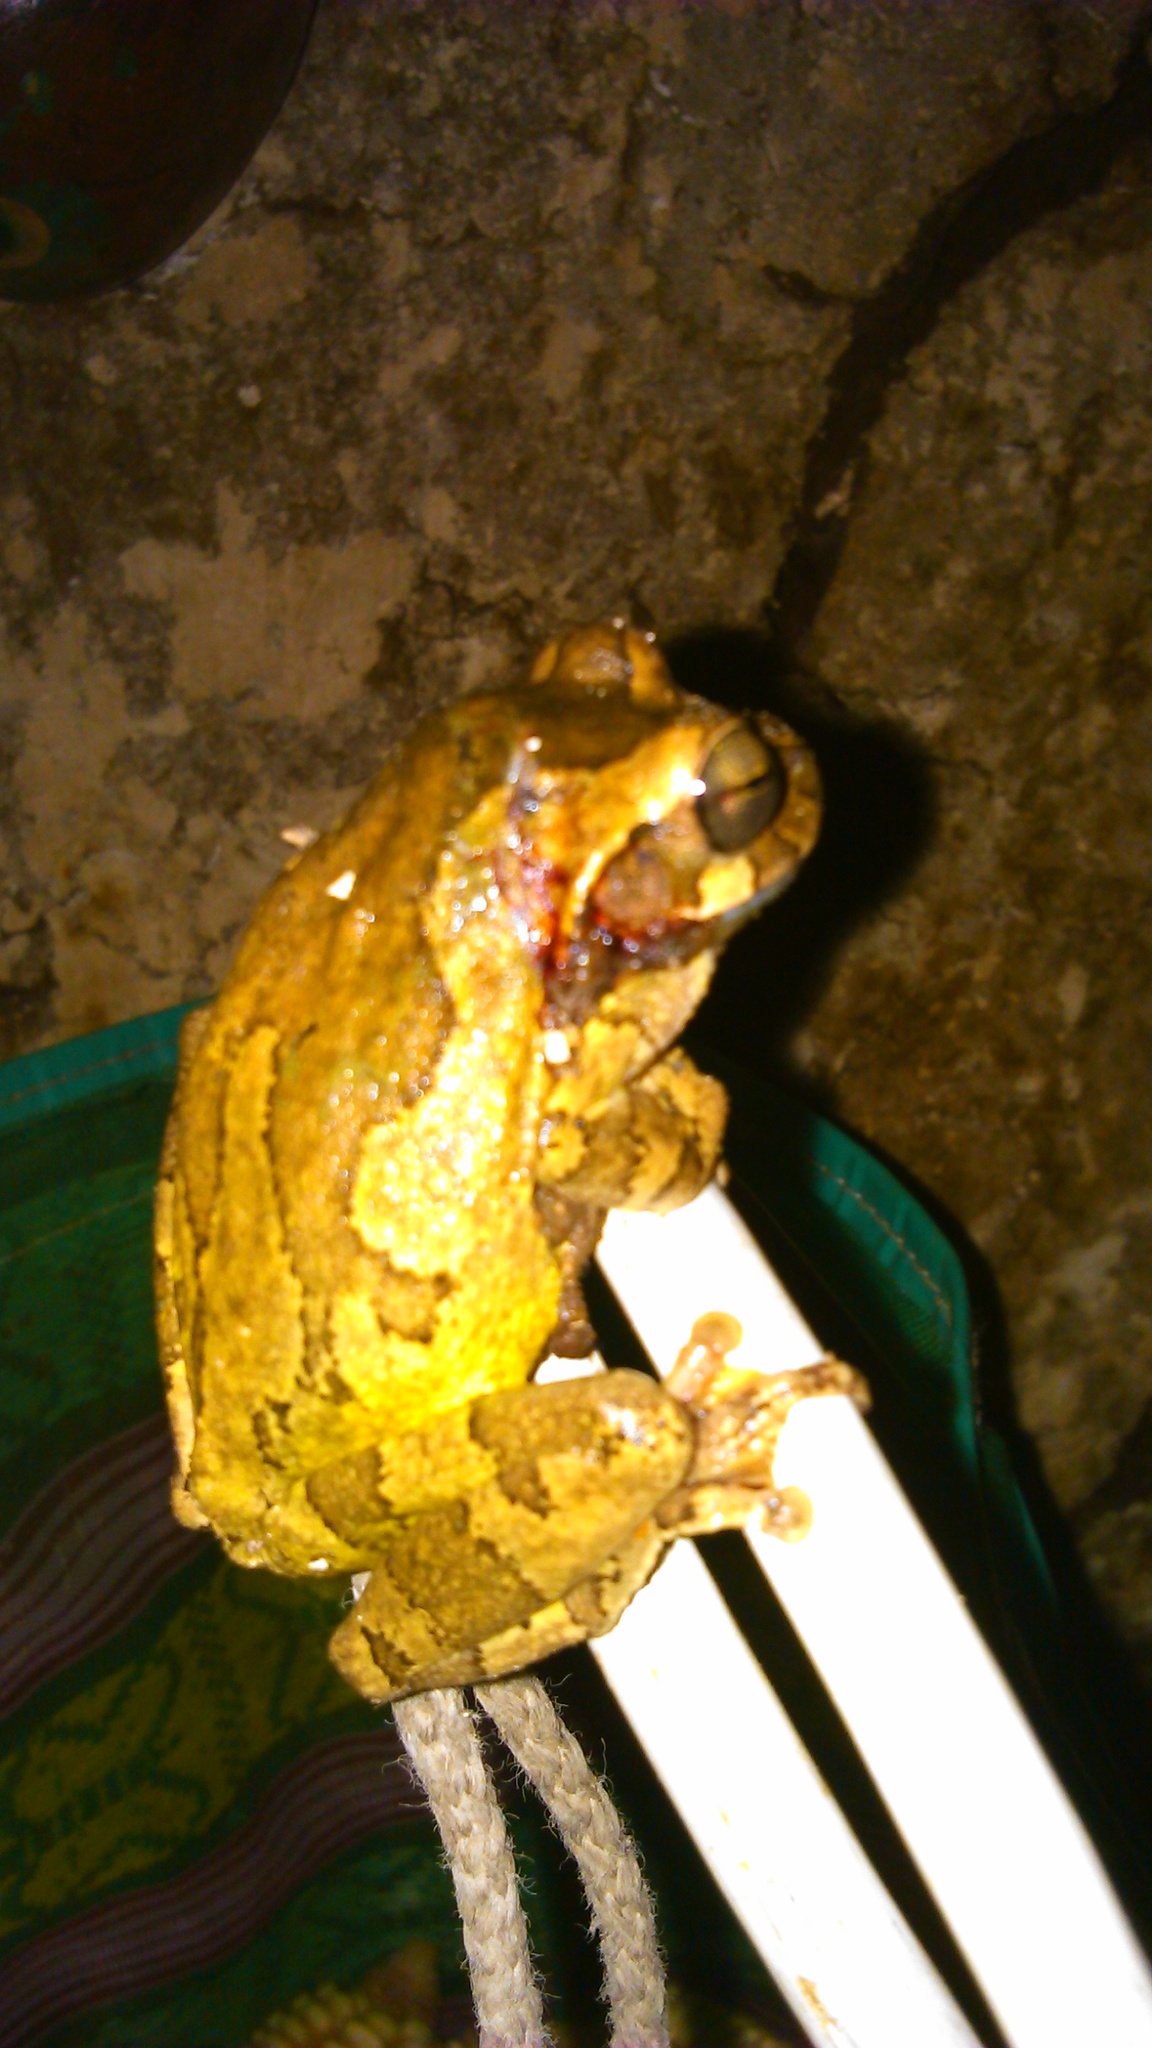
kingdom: Animalia
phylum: Chordata
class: Amphibia
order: Anura
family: Hylidae
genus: Smilisca
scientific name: Smilisca baudinii
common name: Mexican smilisca
